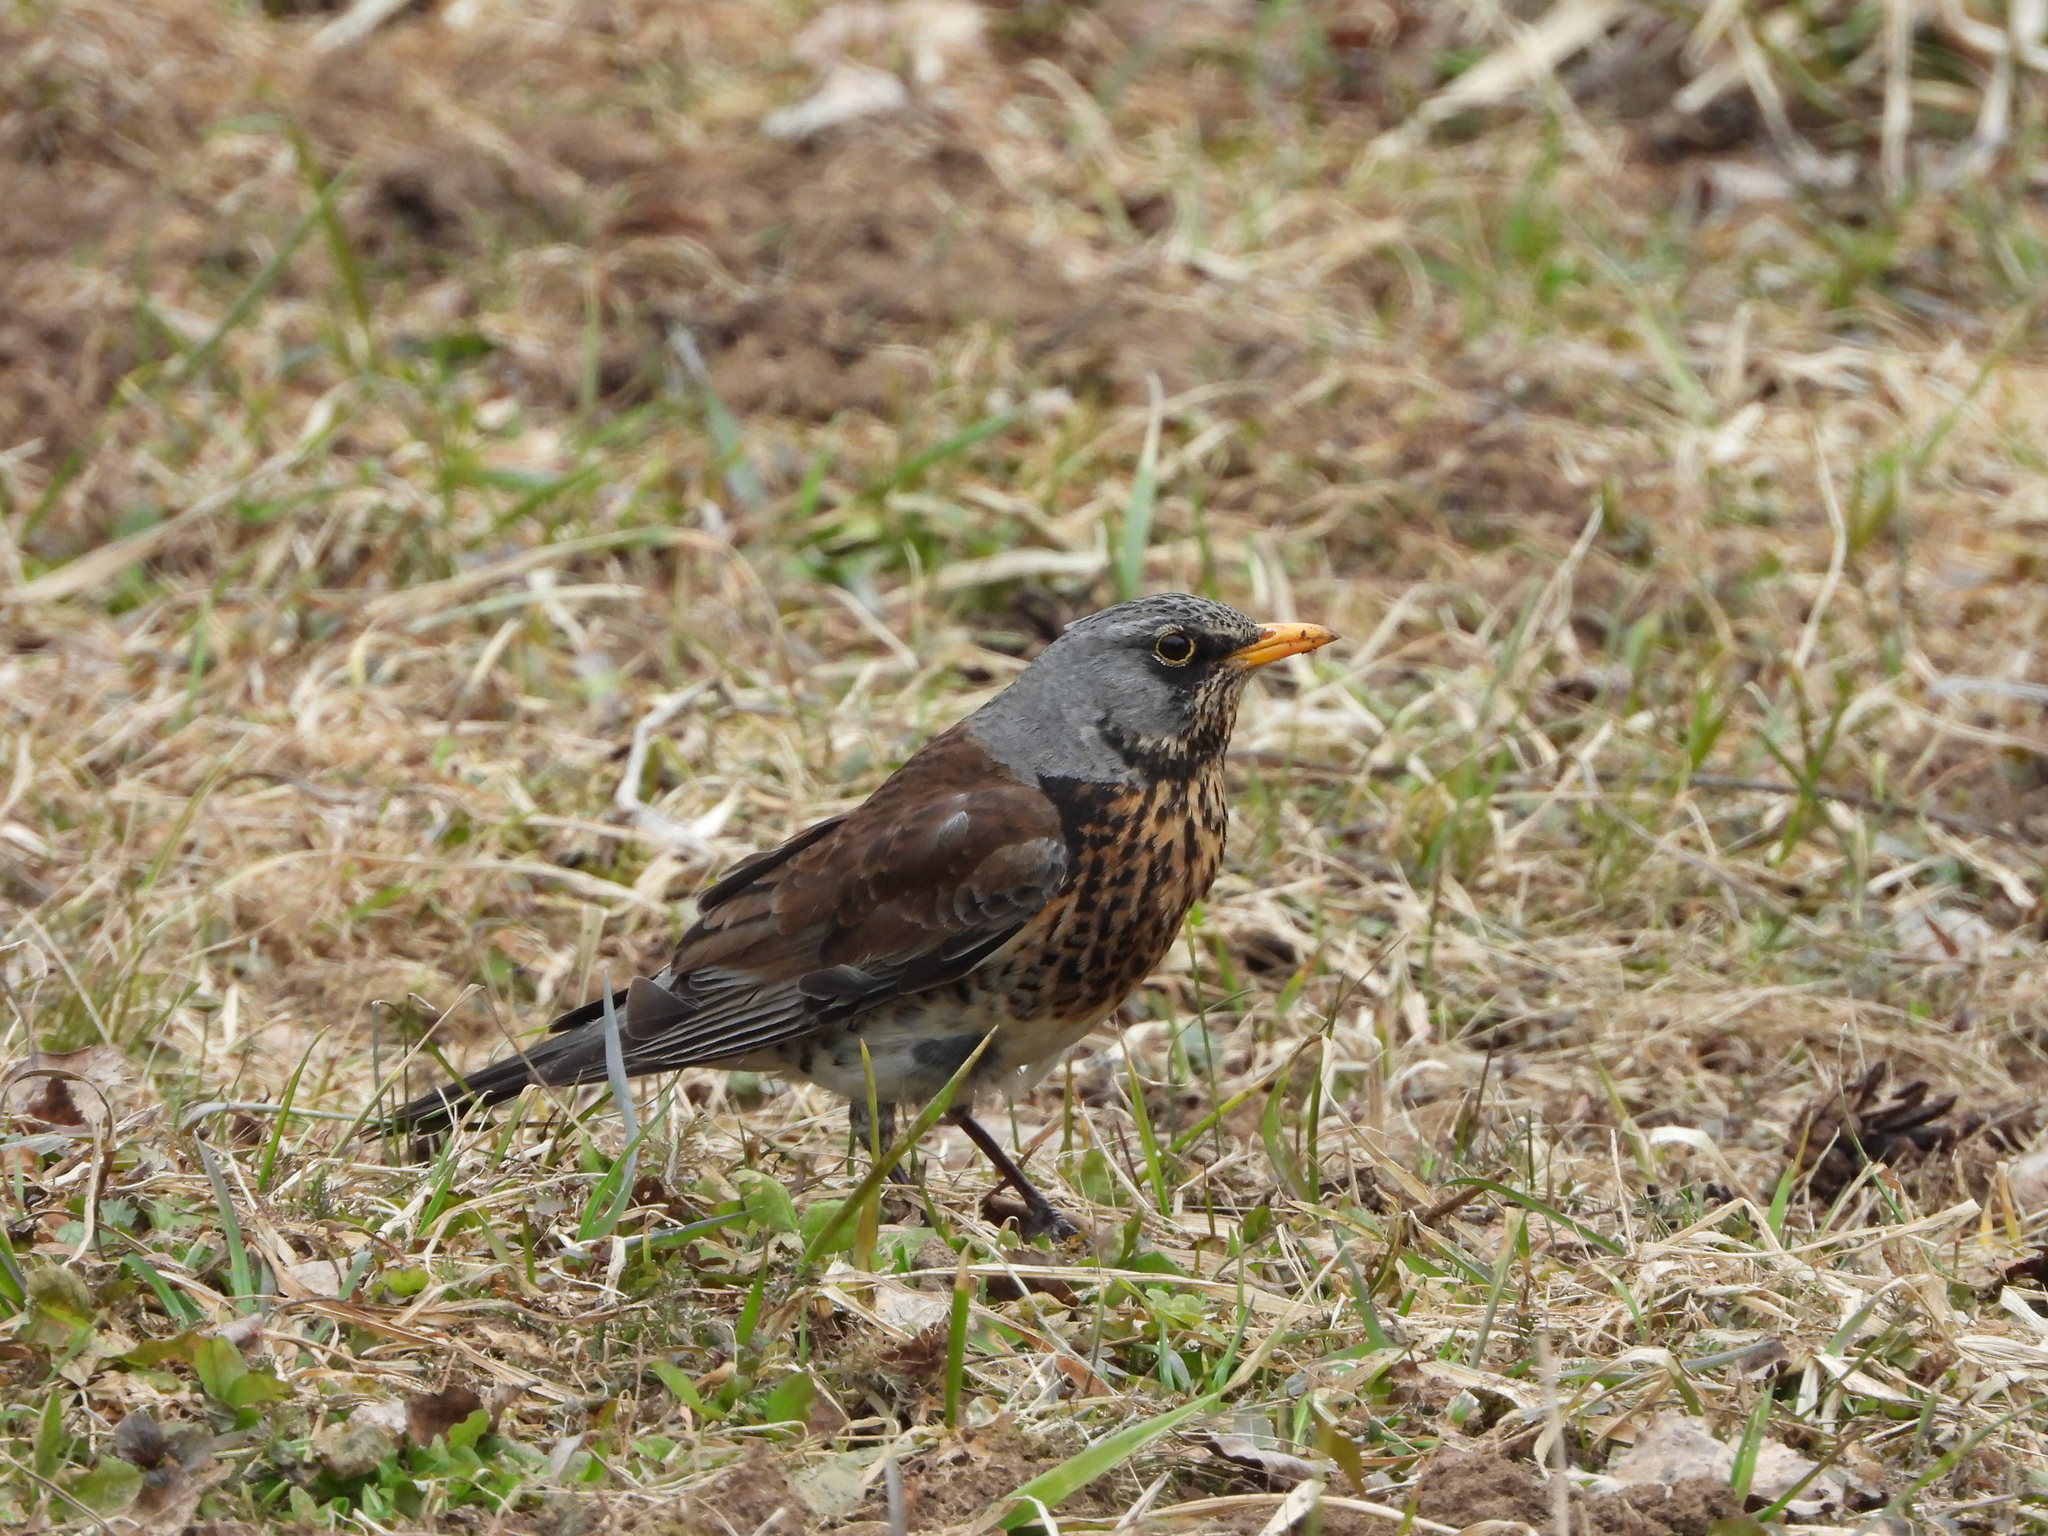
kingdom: Animalia
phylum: Chordata
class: Aves
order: Passeriformes
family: Turdidae
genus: Turdus
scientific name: Turdus pilaris
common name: Fieldfare
